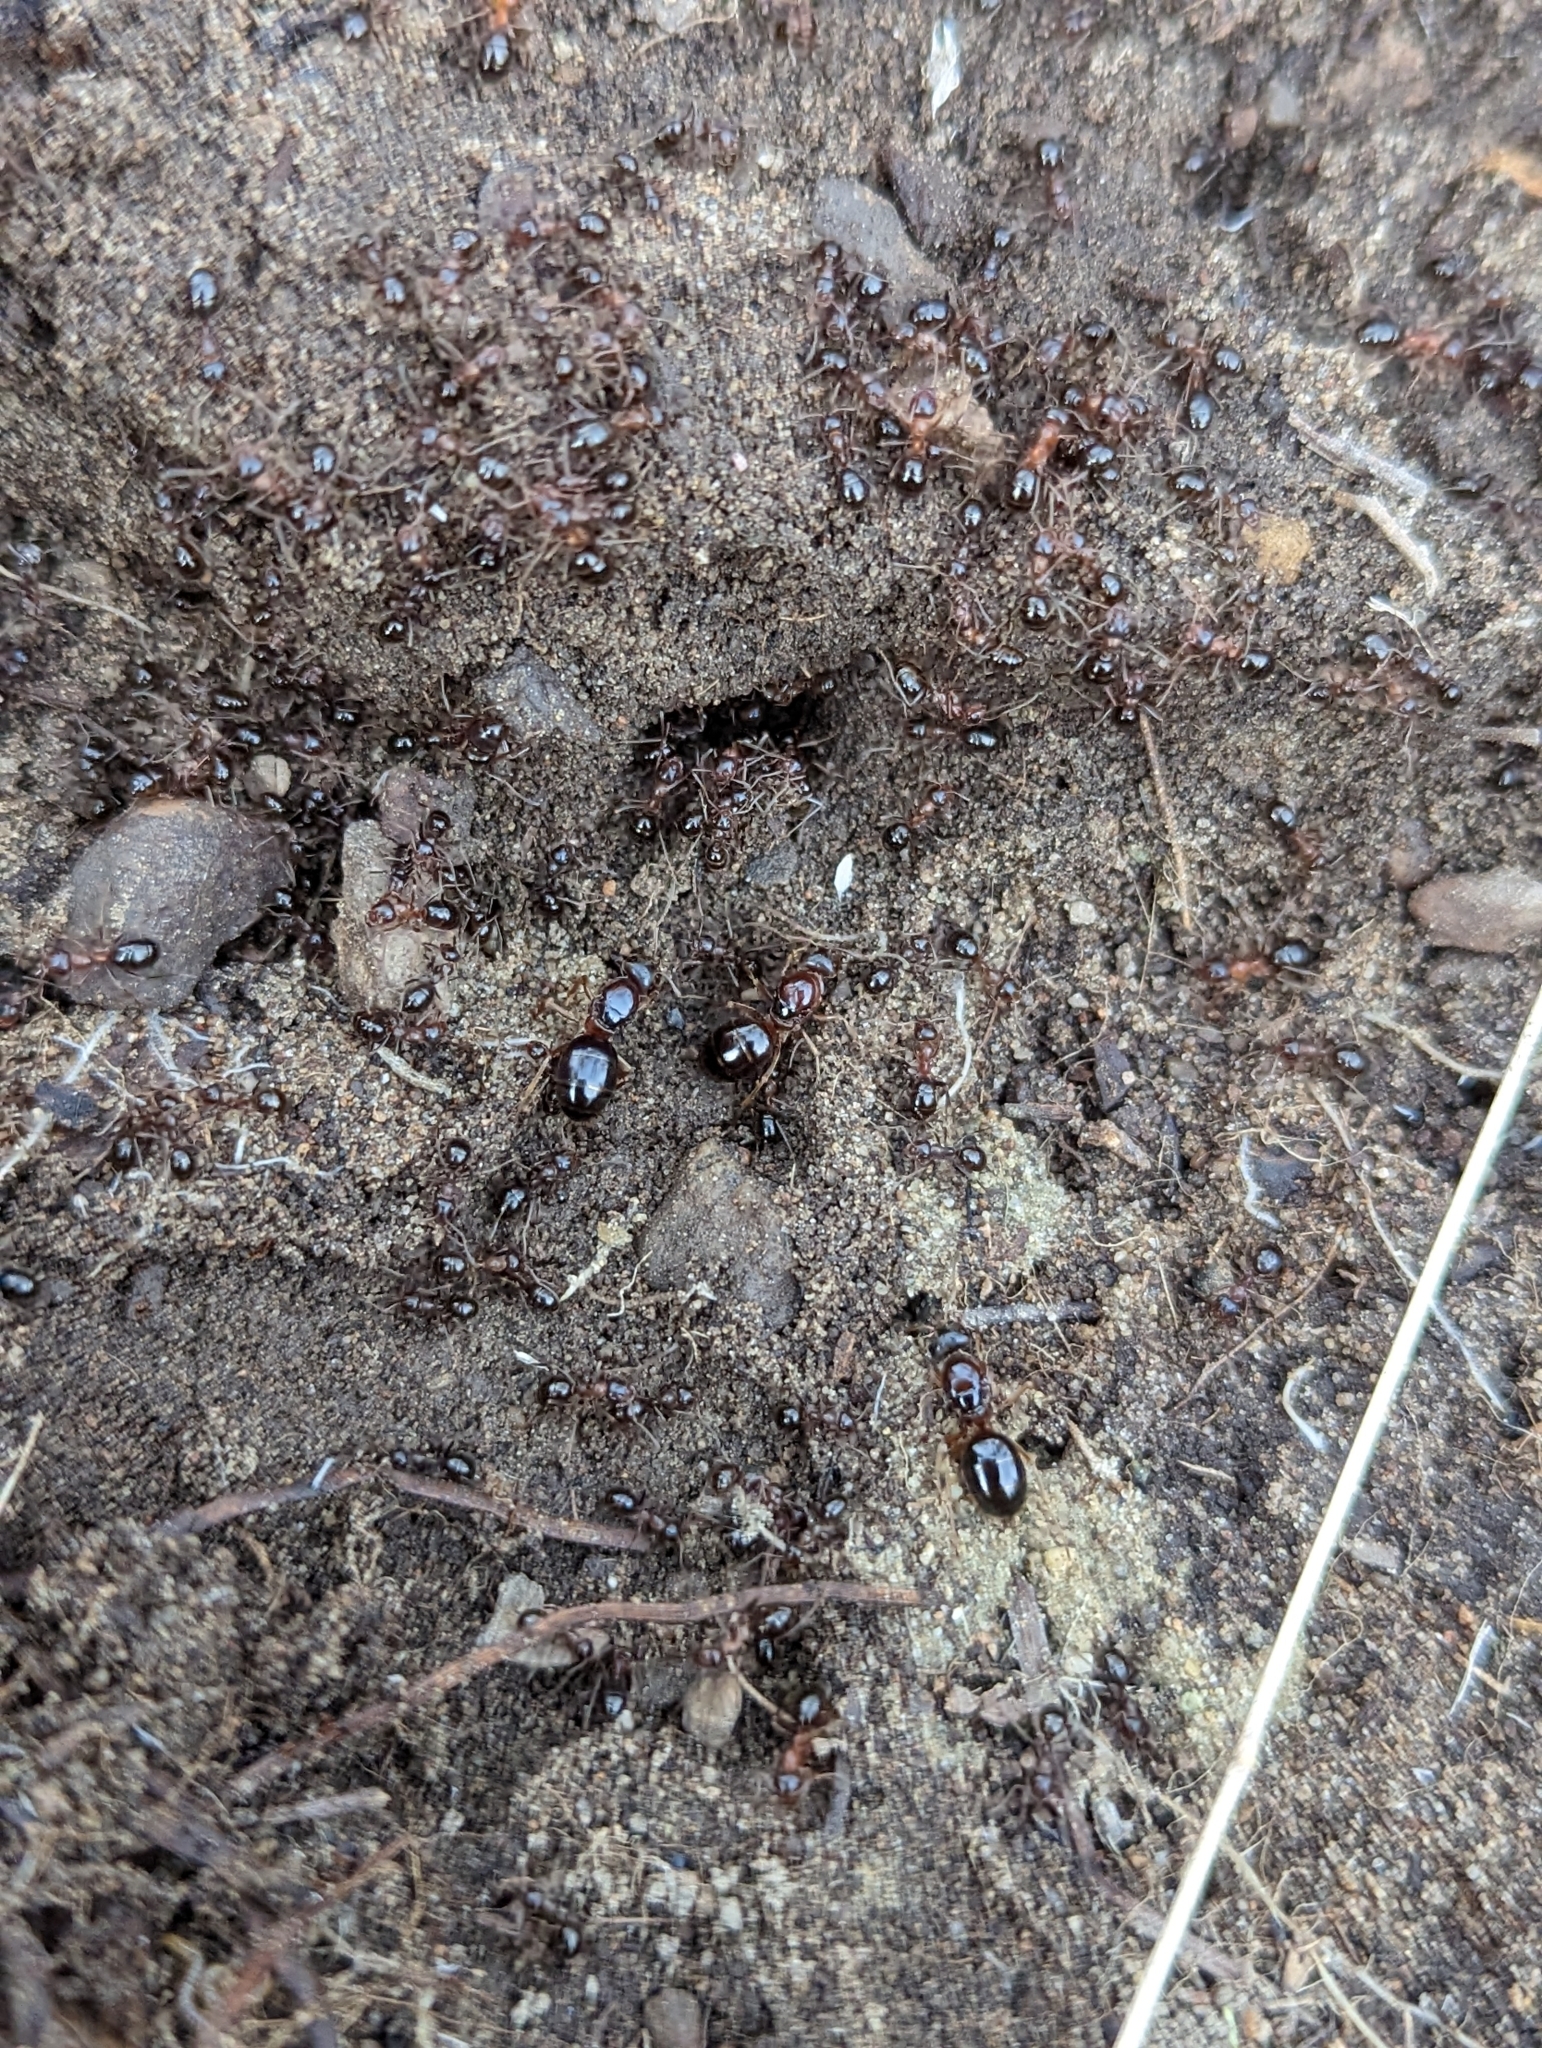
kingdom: Animalia
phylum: Arthropoda
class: Insecta
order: Hymenoptera
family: Formicidae
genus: Formica
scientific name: Formica subpolita
